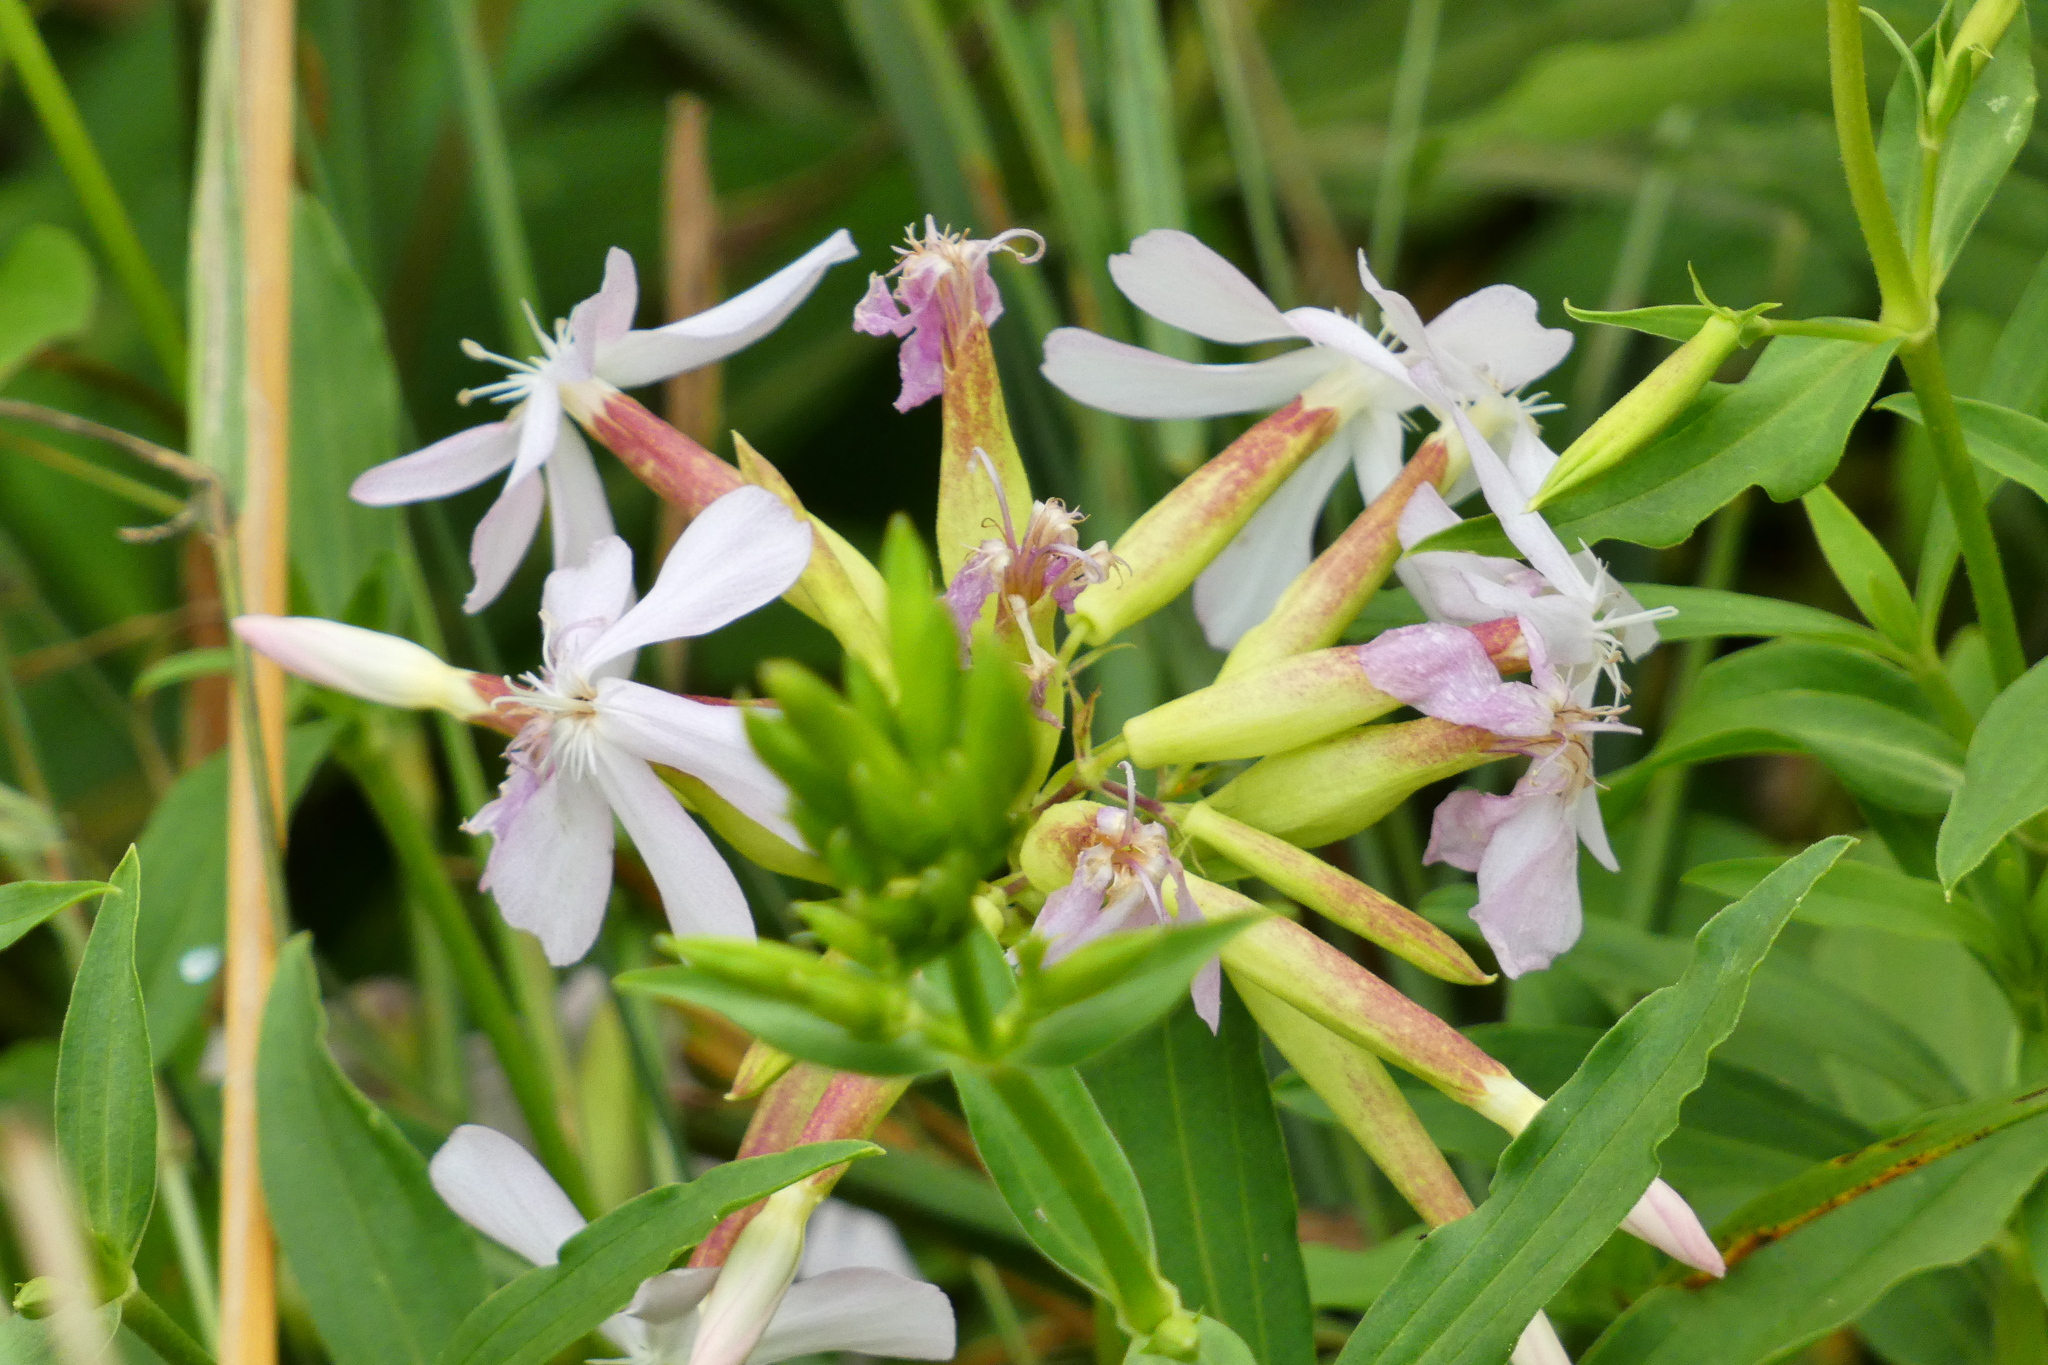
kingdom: Plantae
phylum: Tracheophyta
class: Magnoliopsida
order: Caryophyllales
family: Caryophyllaceae
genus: Saponaria
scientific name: Saponaria officinalis
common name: Soapwort
